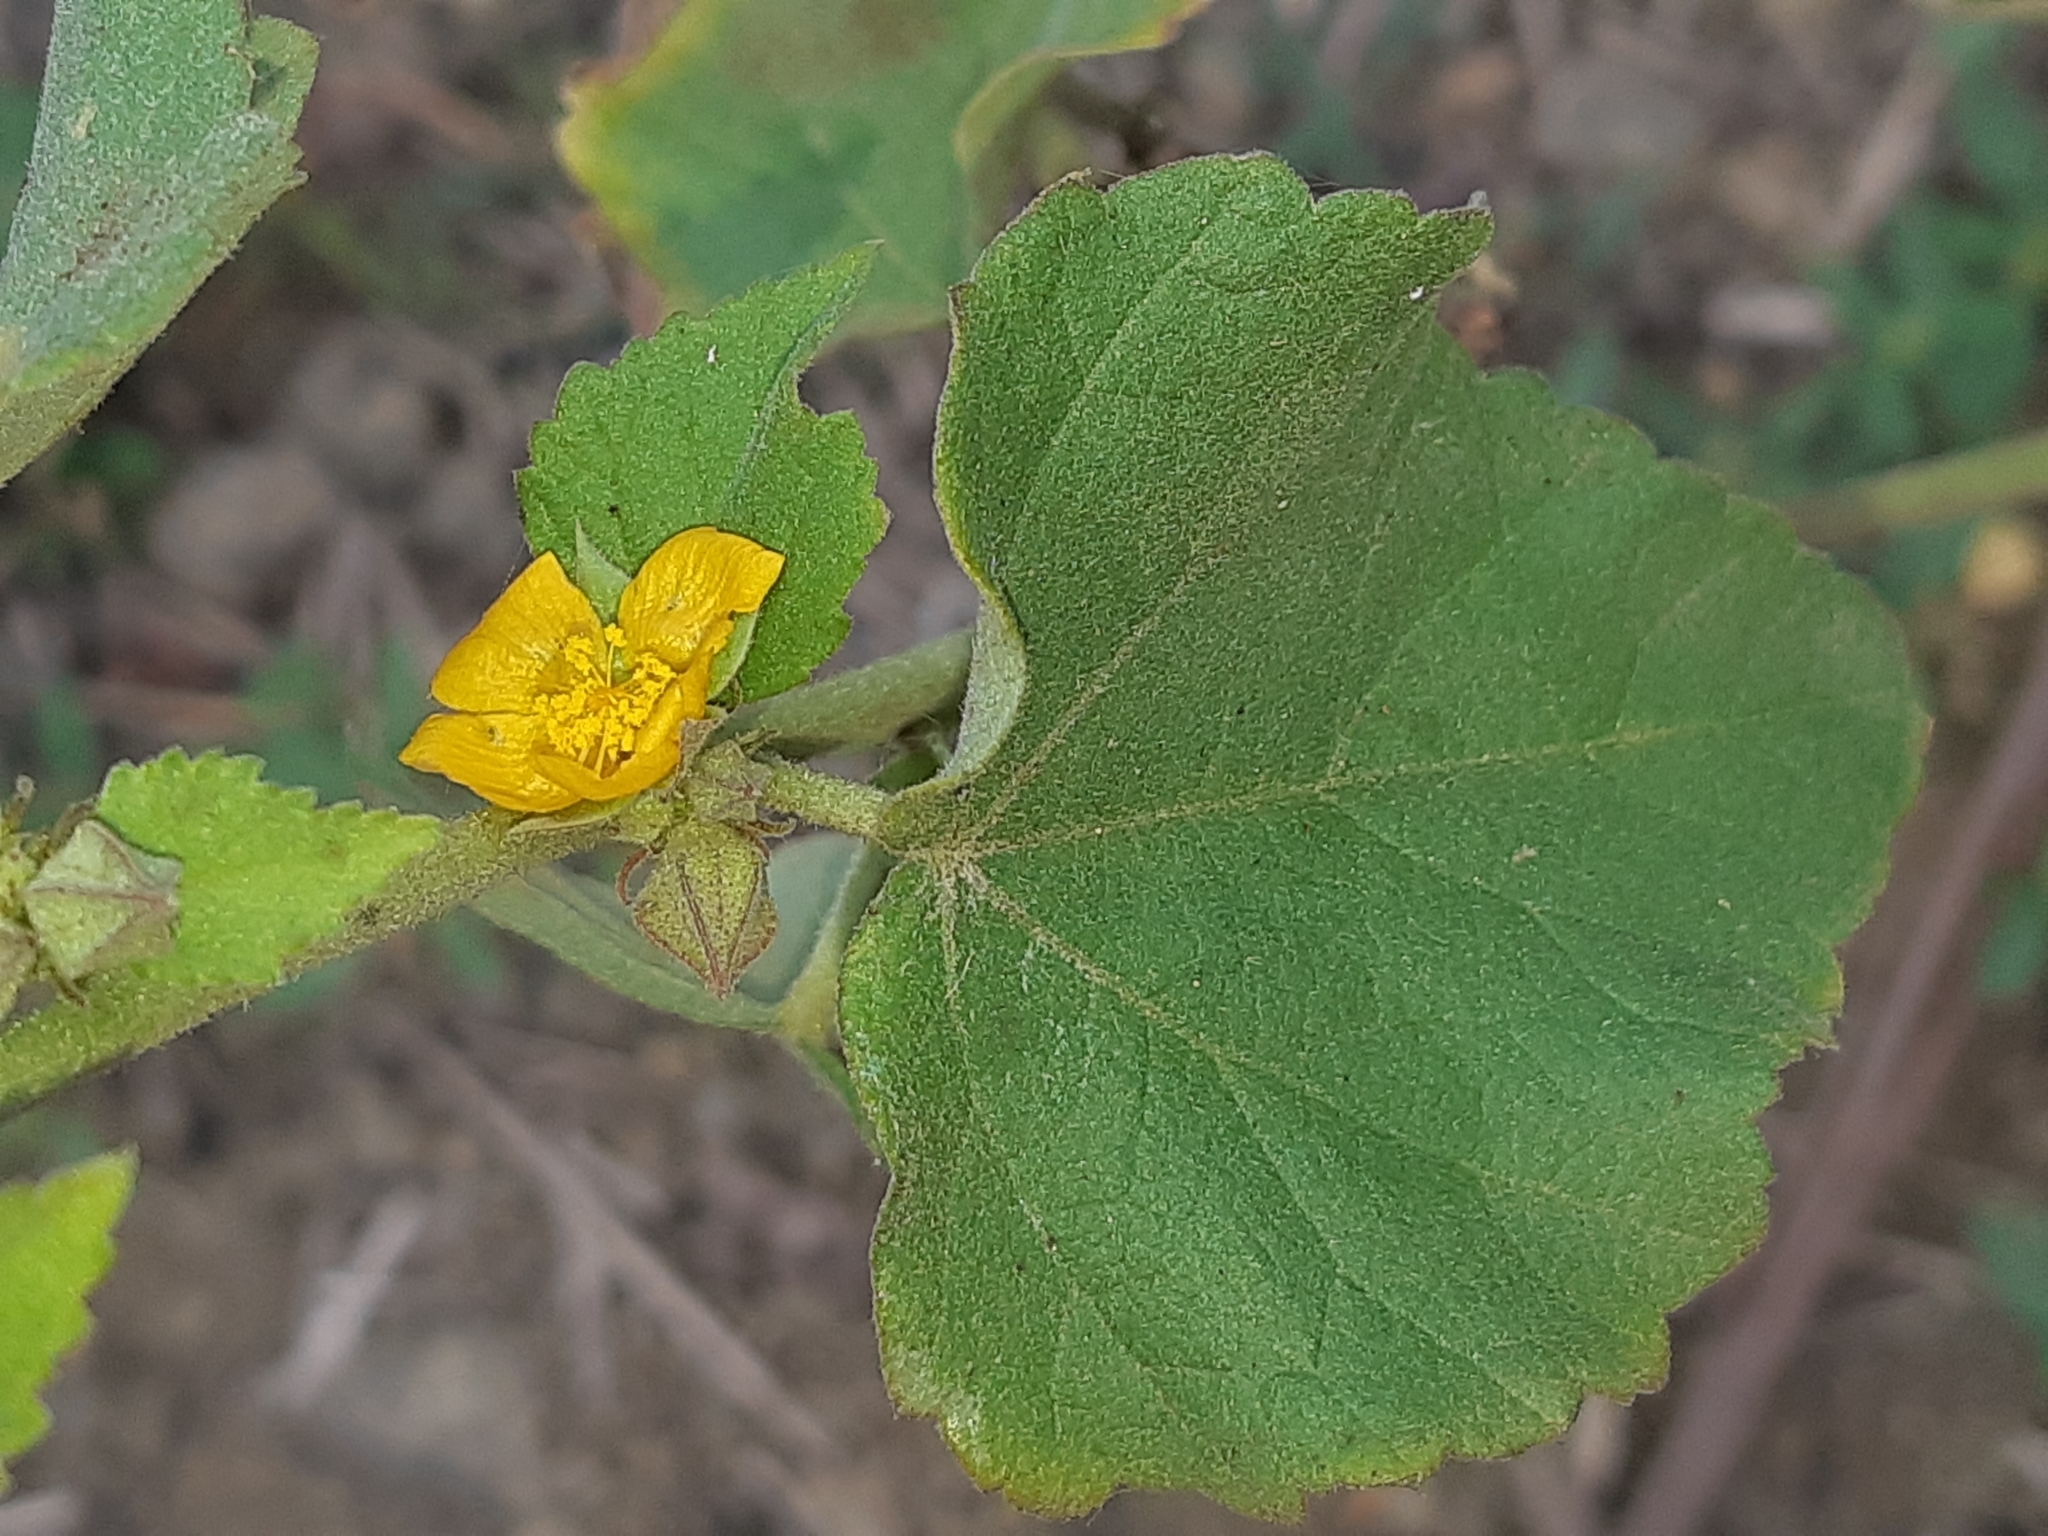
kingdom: Plantae
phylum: Tracheophyta
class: Magnoliopsida
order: Malvales
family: Malvaceae
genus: Malvastrum
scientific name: Malvastrum americanum
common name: Spiked malvastrum
